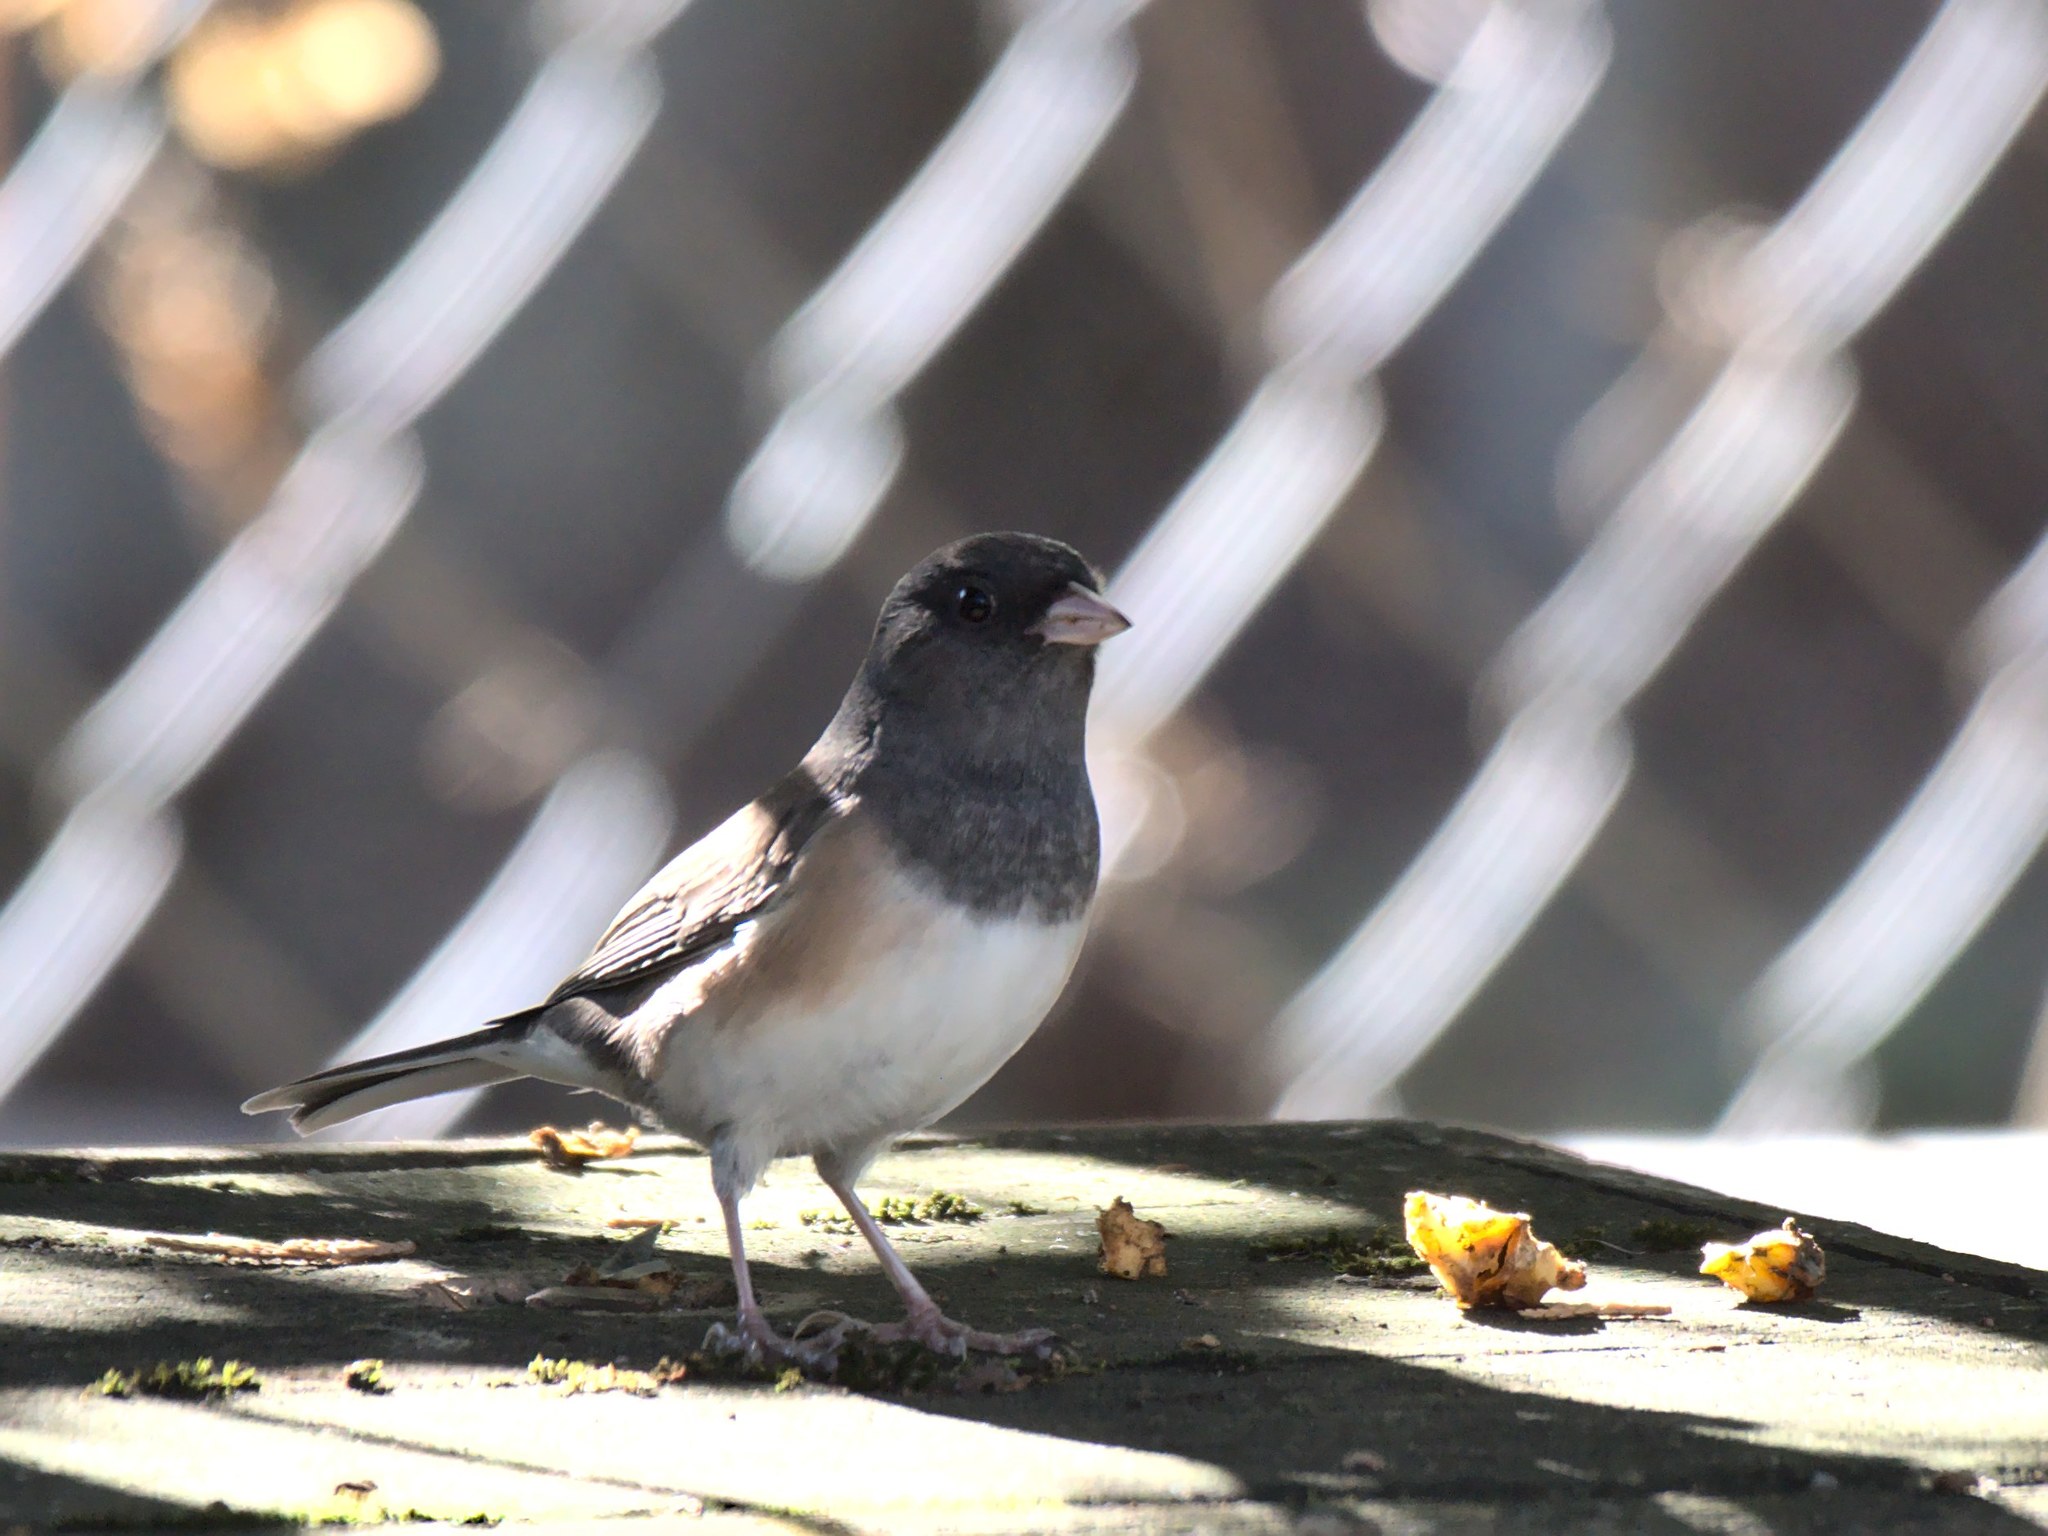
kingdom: Animalia
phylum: Chordata
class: Aves
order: Passeriformes
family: Passerellidae
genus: Junco
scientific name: Junco hyemalis
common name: Dark-eyed junco
